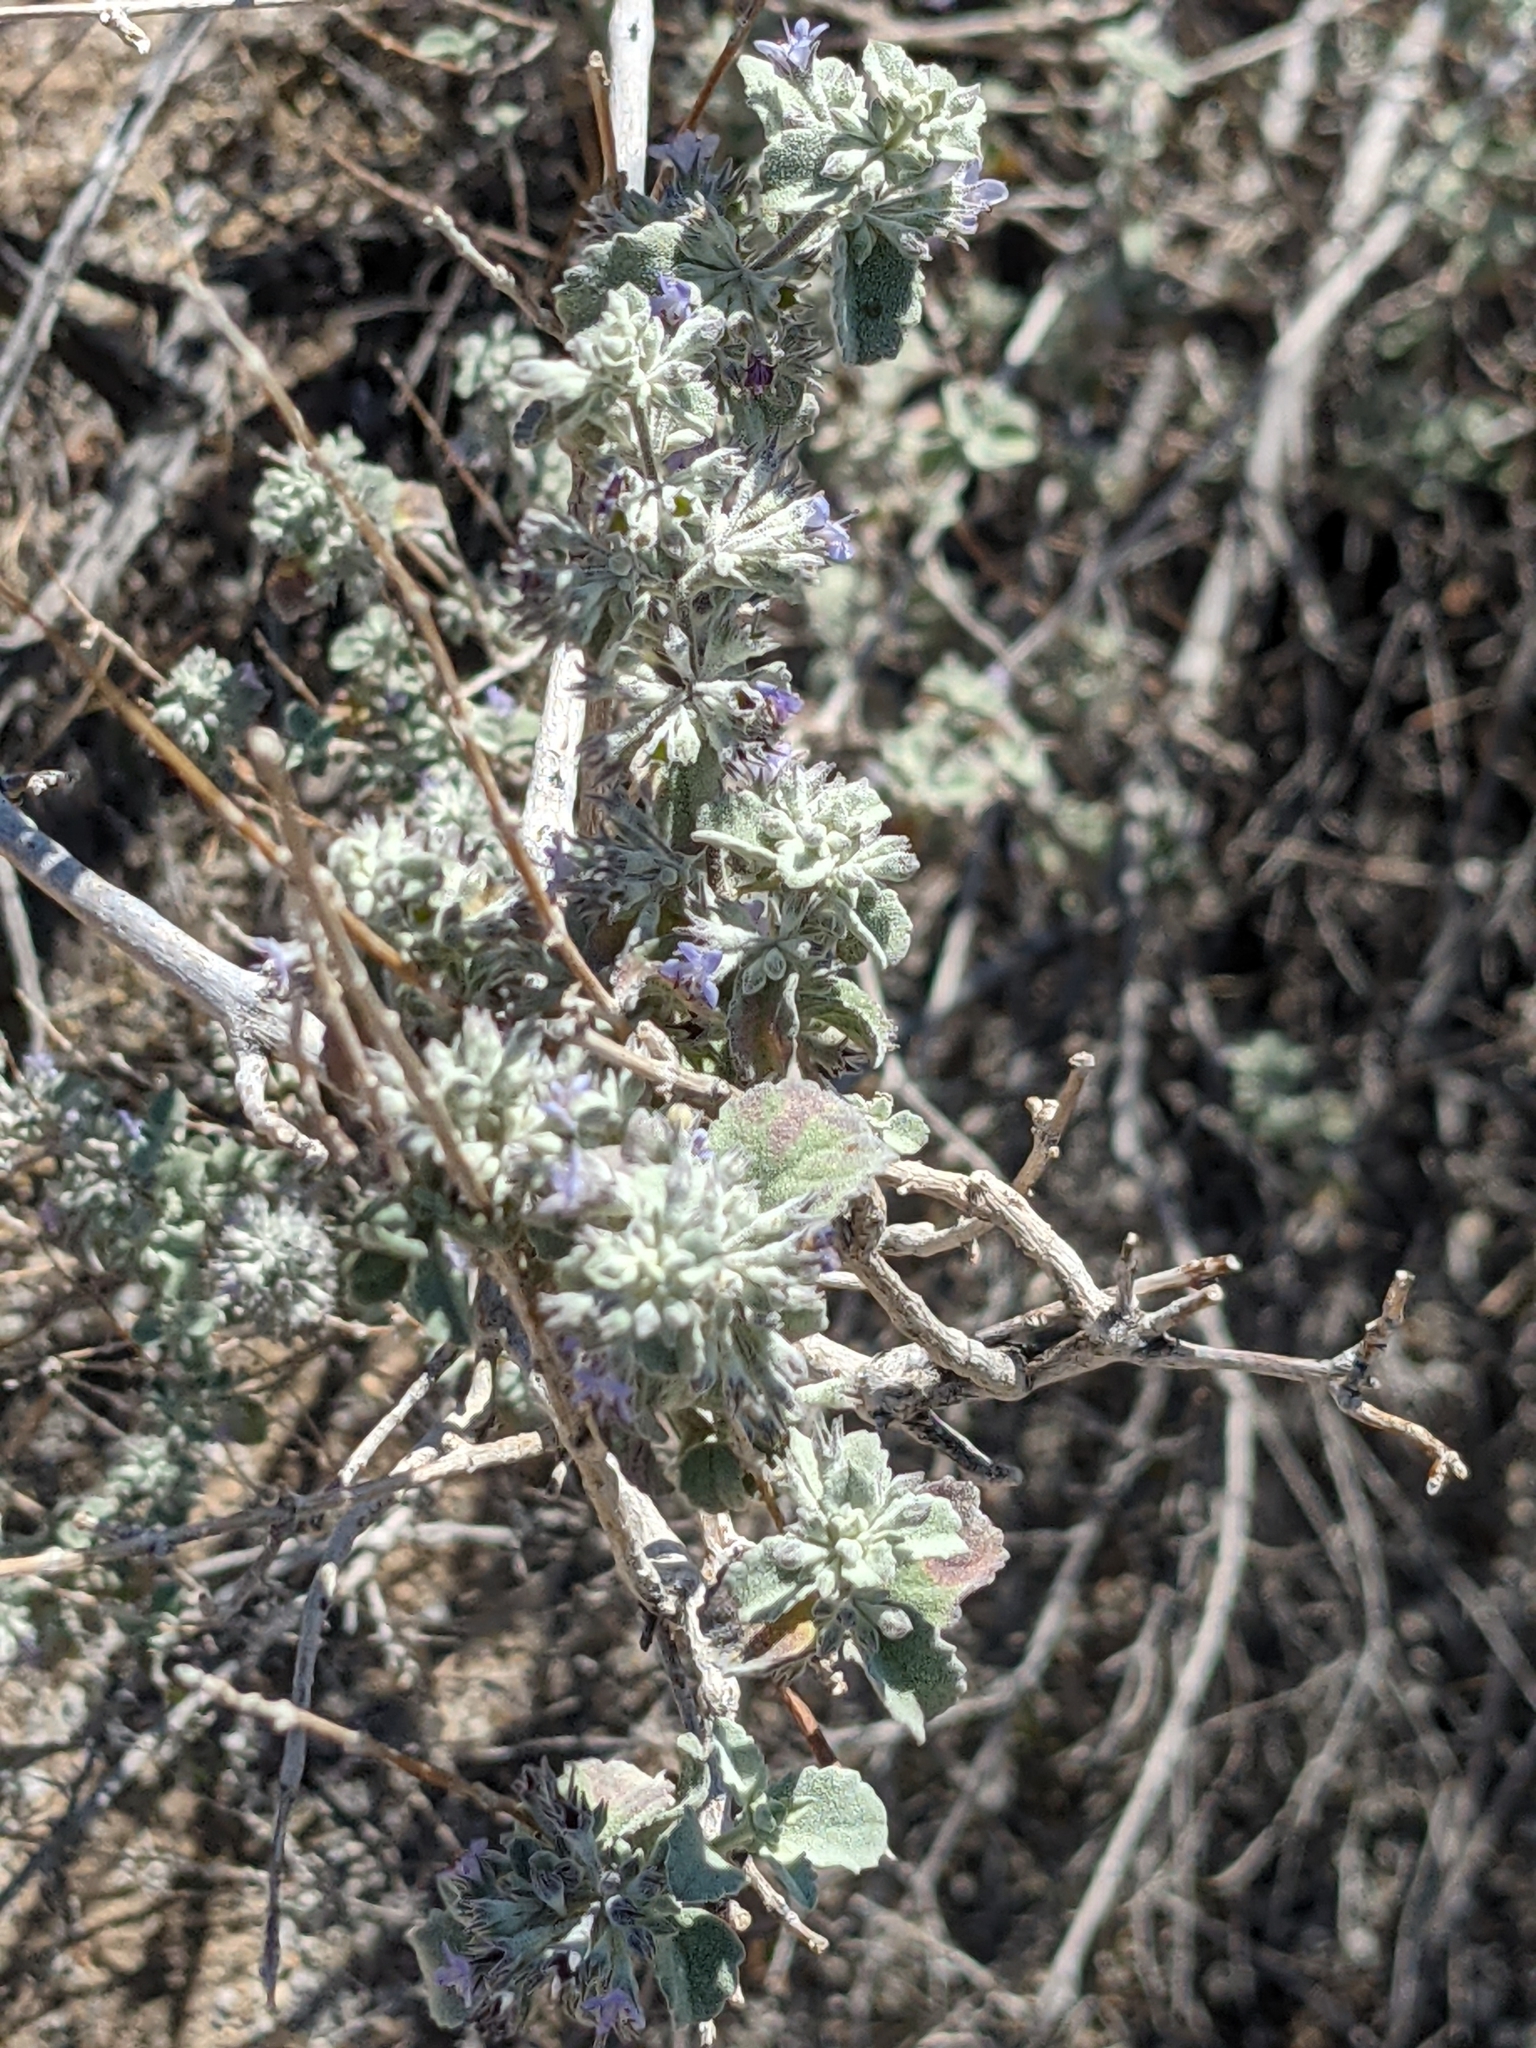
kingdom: Plantae
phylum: Tracheophyta
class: Magnoliopsida
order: Lamiales
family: Lamiaceae
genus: Condea
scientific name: Condea emoryi
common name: Chia
